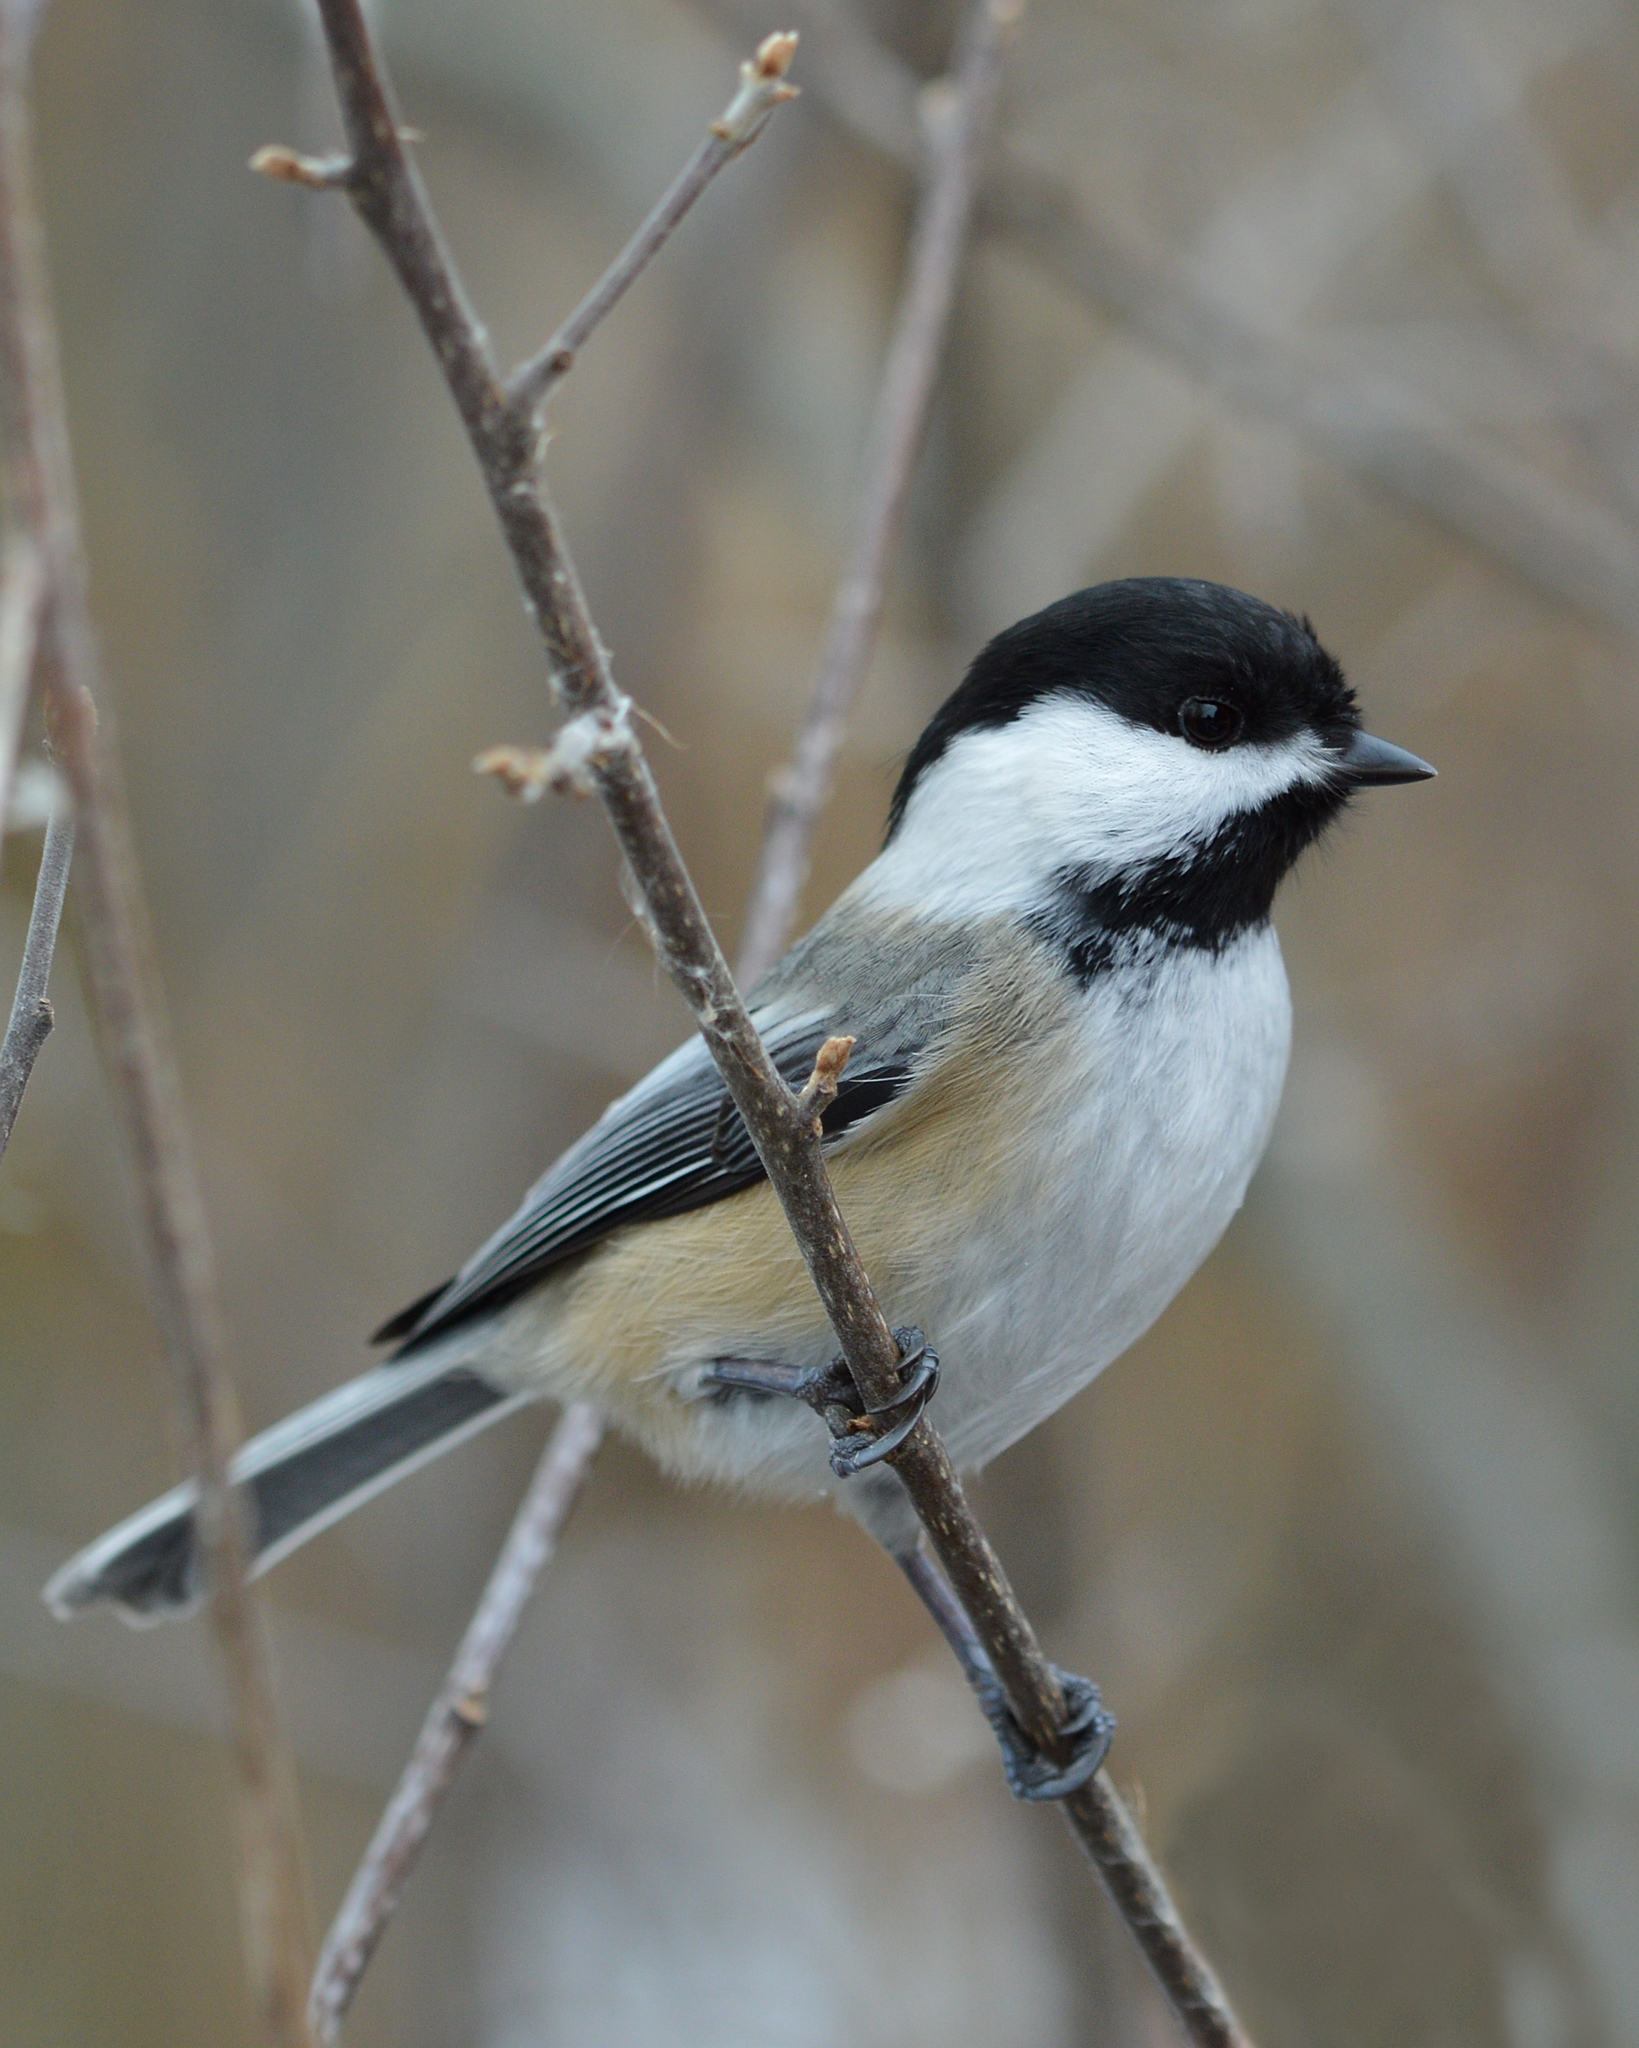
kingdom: Animalia
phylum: Chordata
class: Aves
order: Passeriformes
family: Paridae
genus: Poecile
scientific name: Poecile atricapillus
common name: Black-capped chickadee
